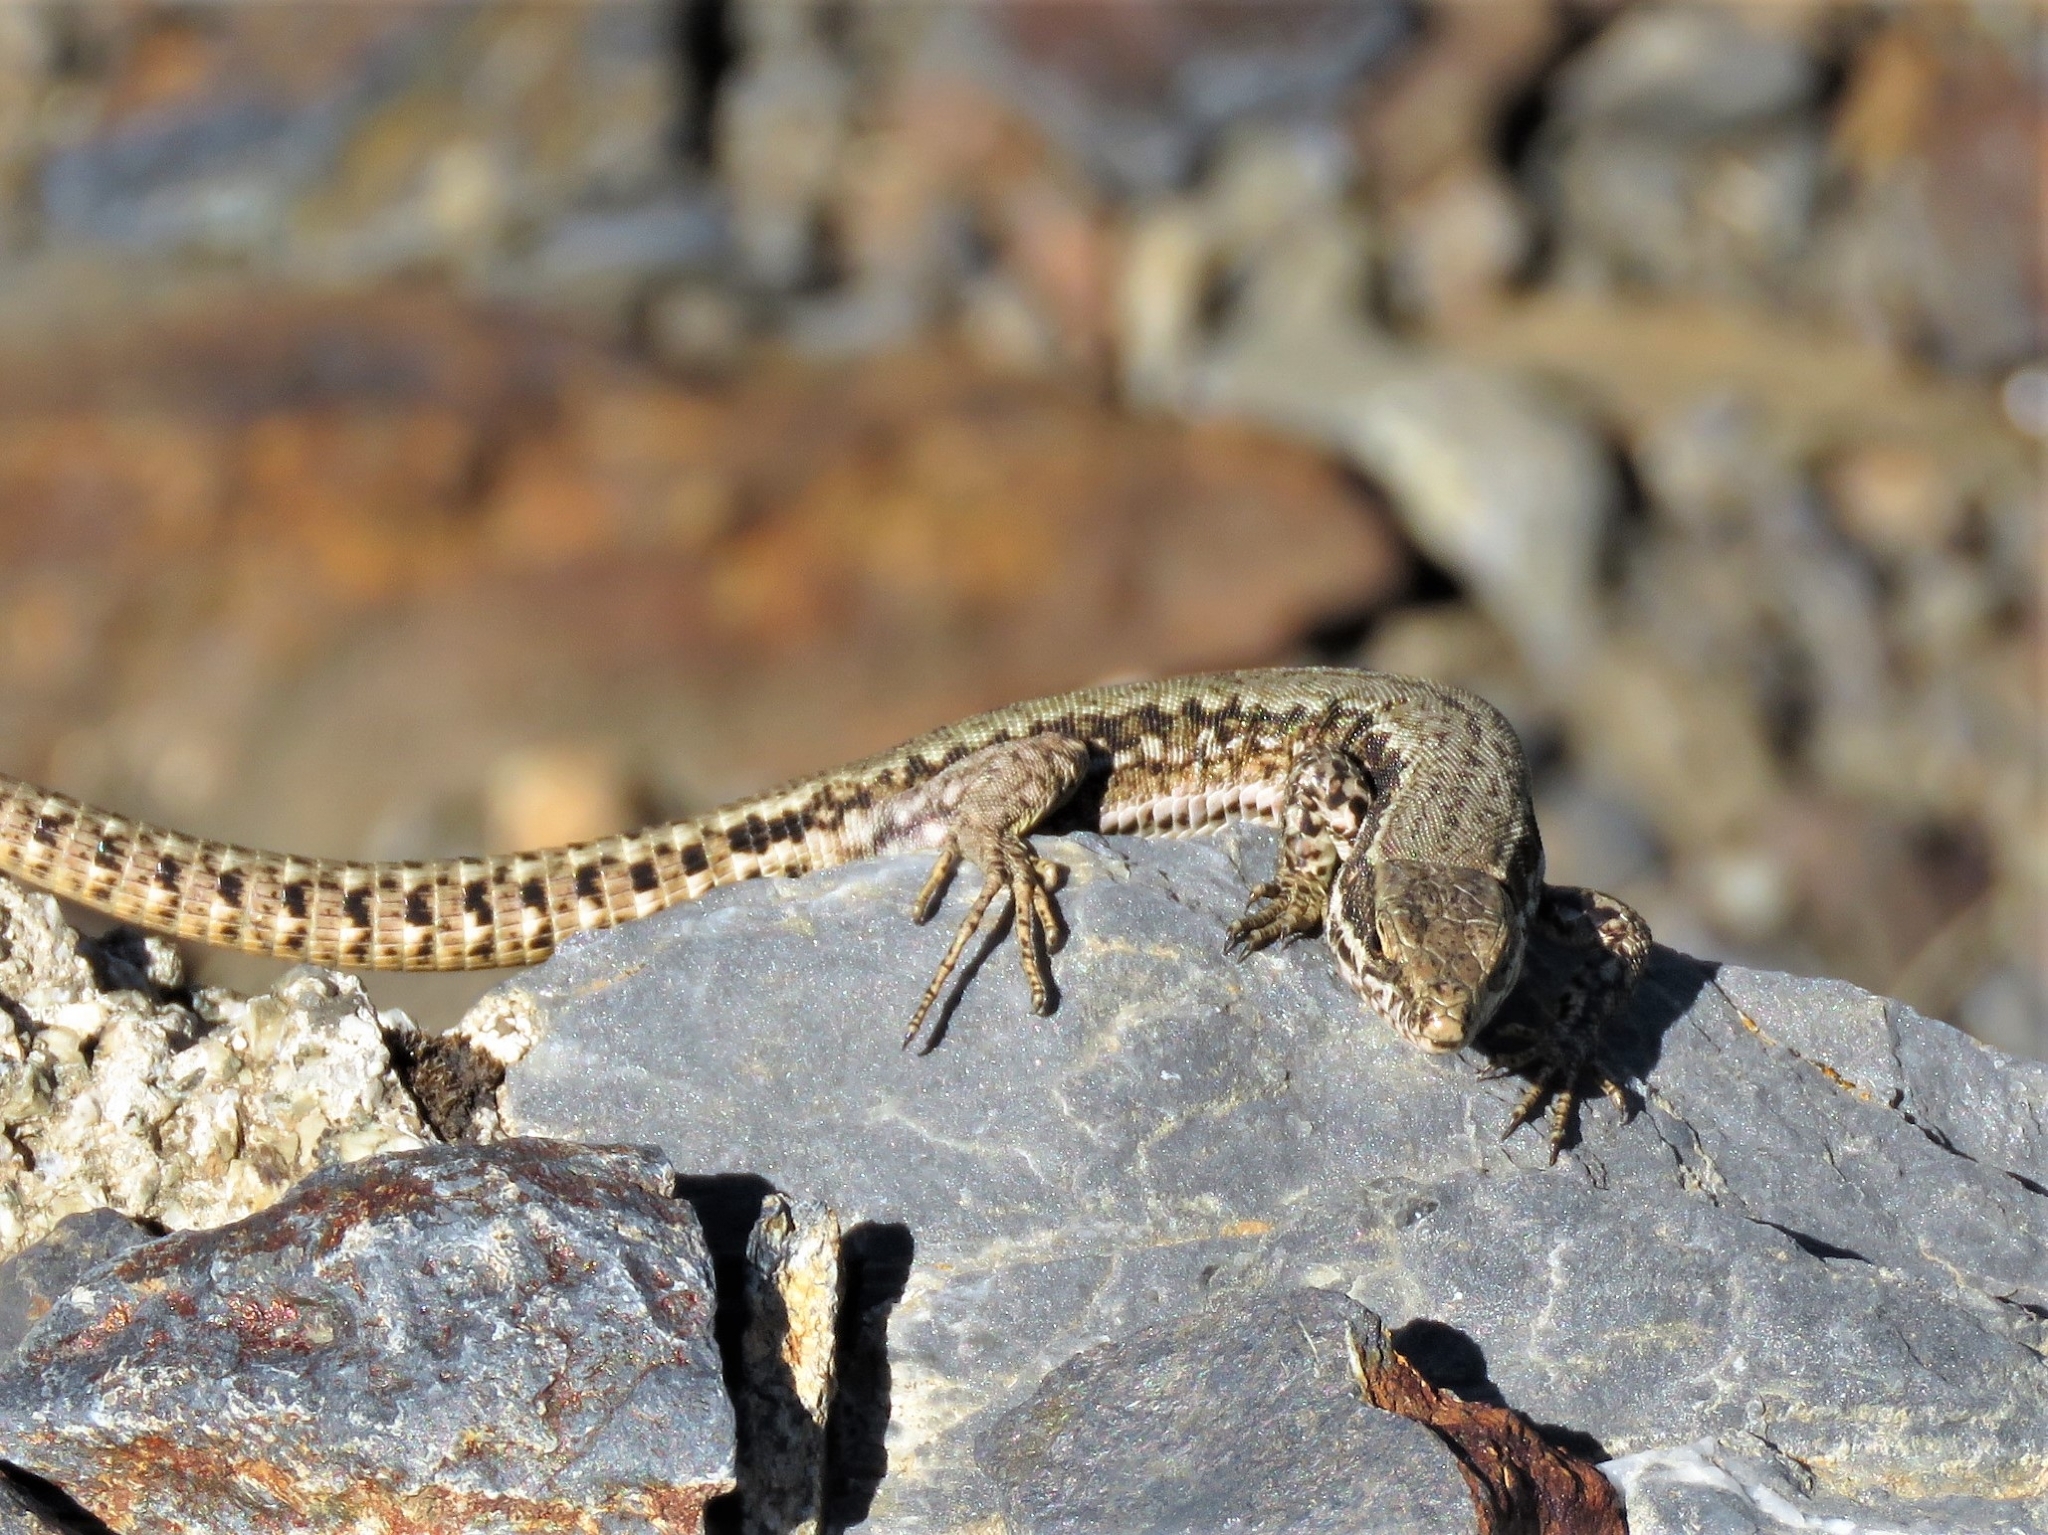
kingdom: Animalia
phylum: Chordata
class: Squamata
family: Lacertidae
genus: Podarcis
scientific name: Podarcis muralis
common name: Common wall lizard
